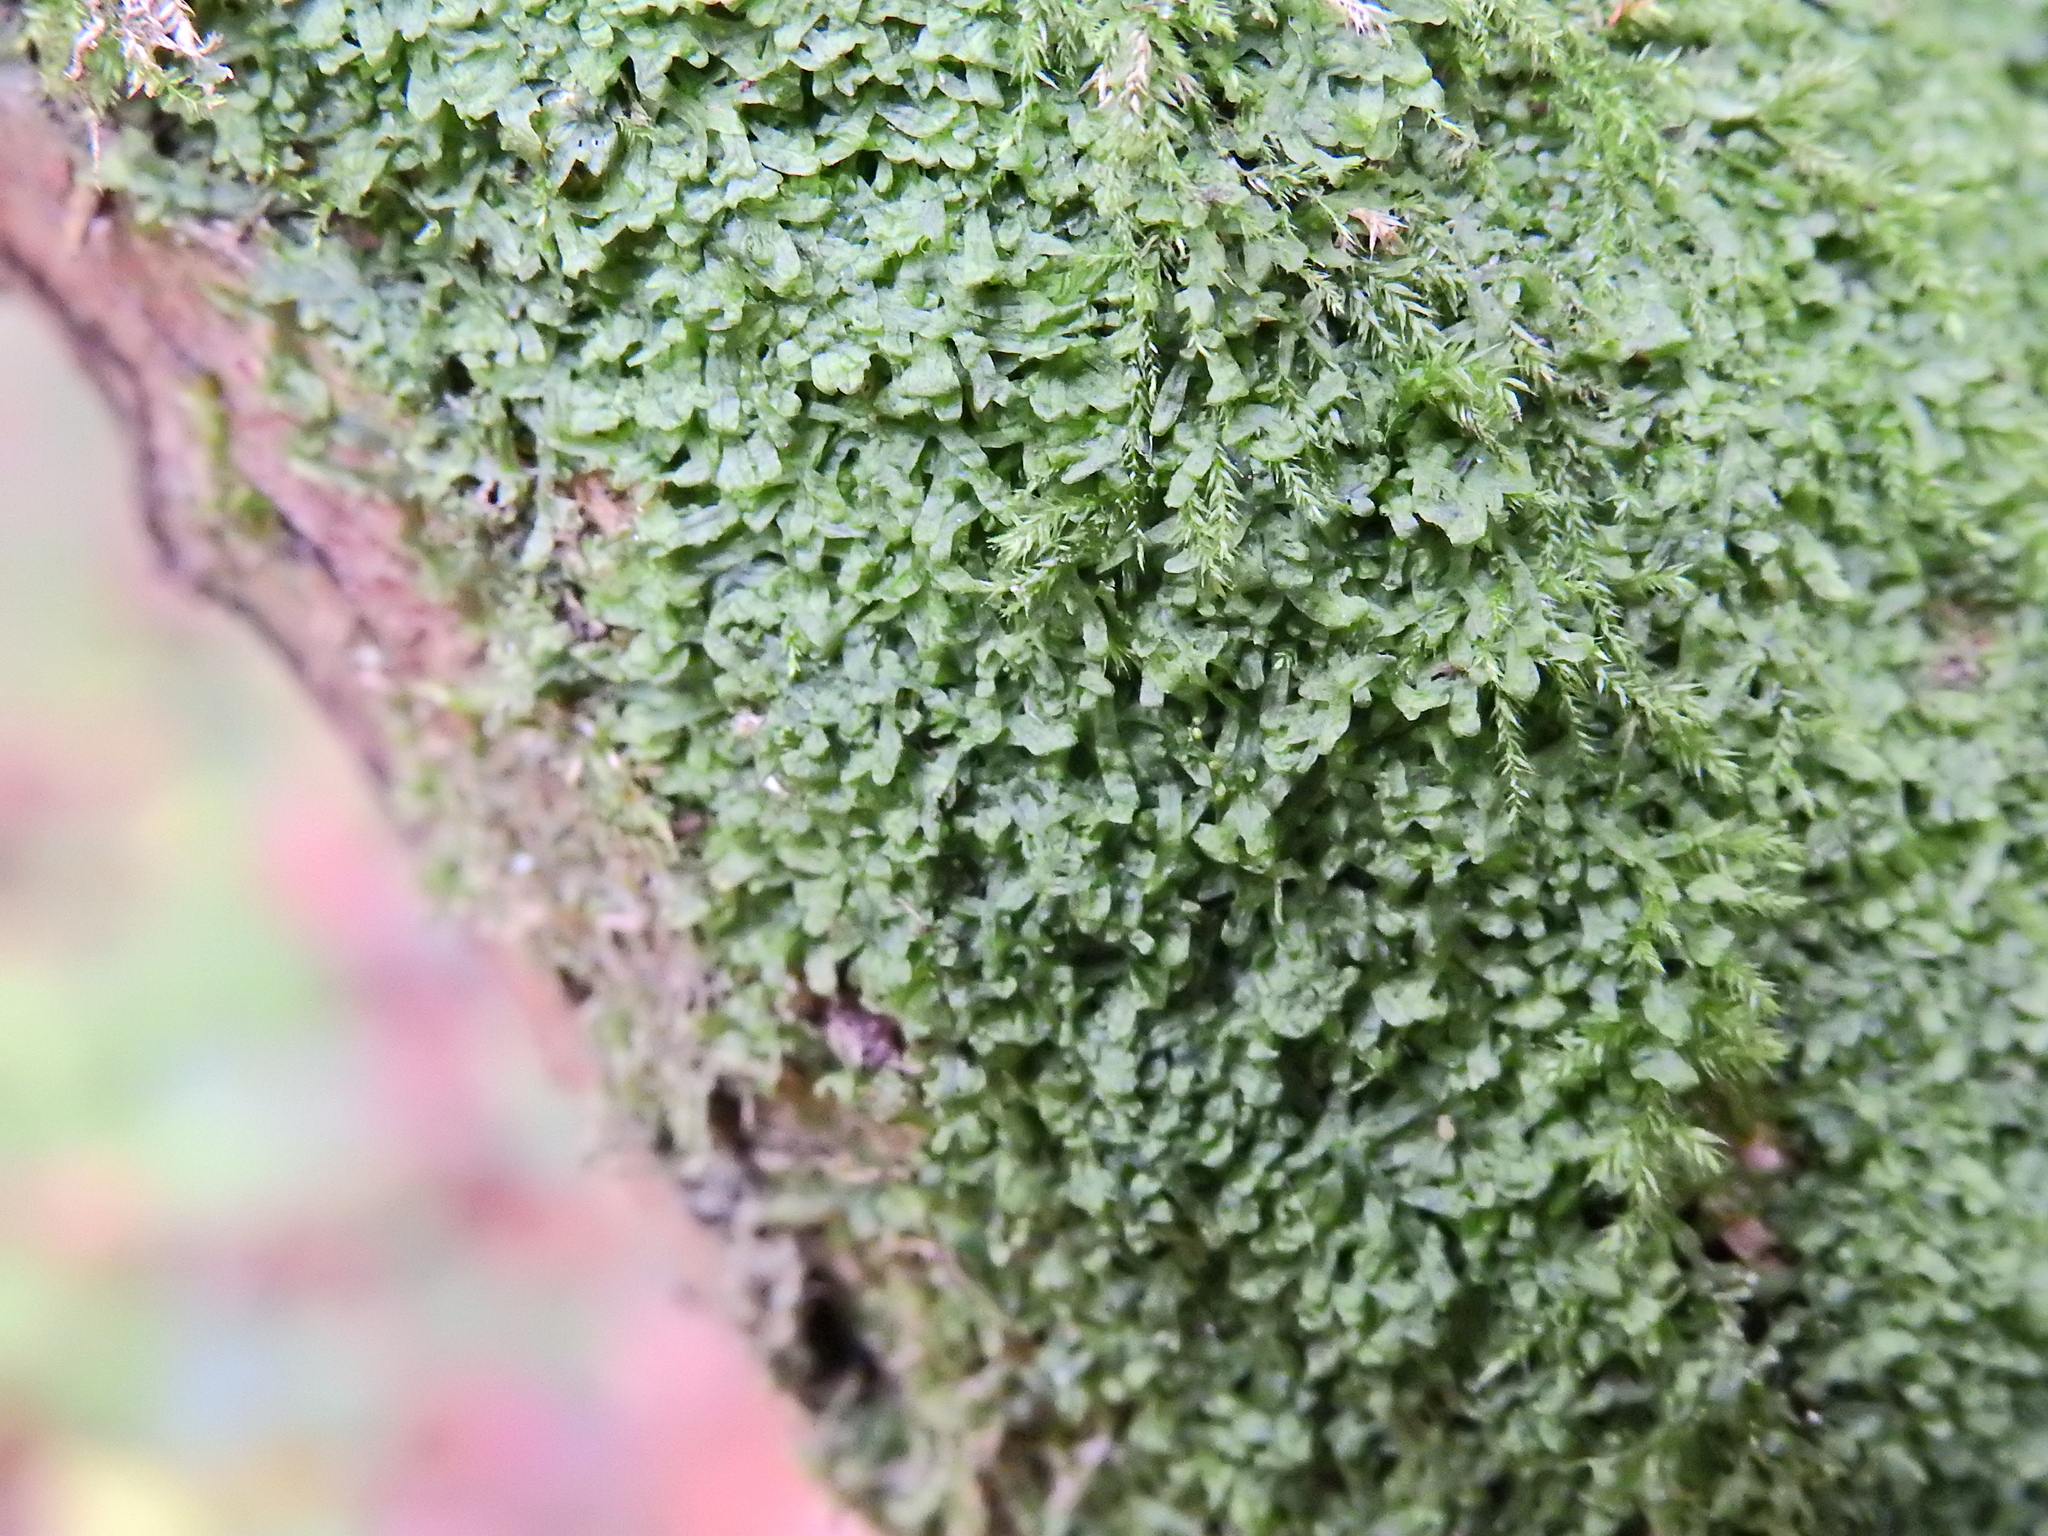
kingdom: Plantae
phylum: Marchantiophyta
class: Jungermanniopsida
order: Metzgeriales
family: Metzgeriaceae
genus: Metzgeria
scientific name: Metzgeria furcata
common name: Forked veilwort
